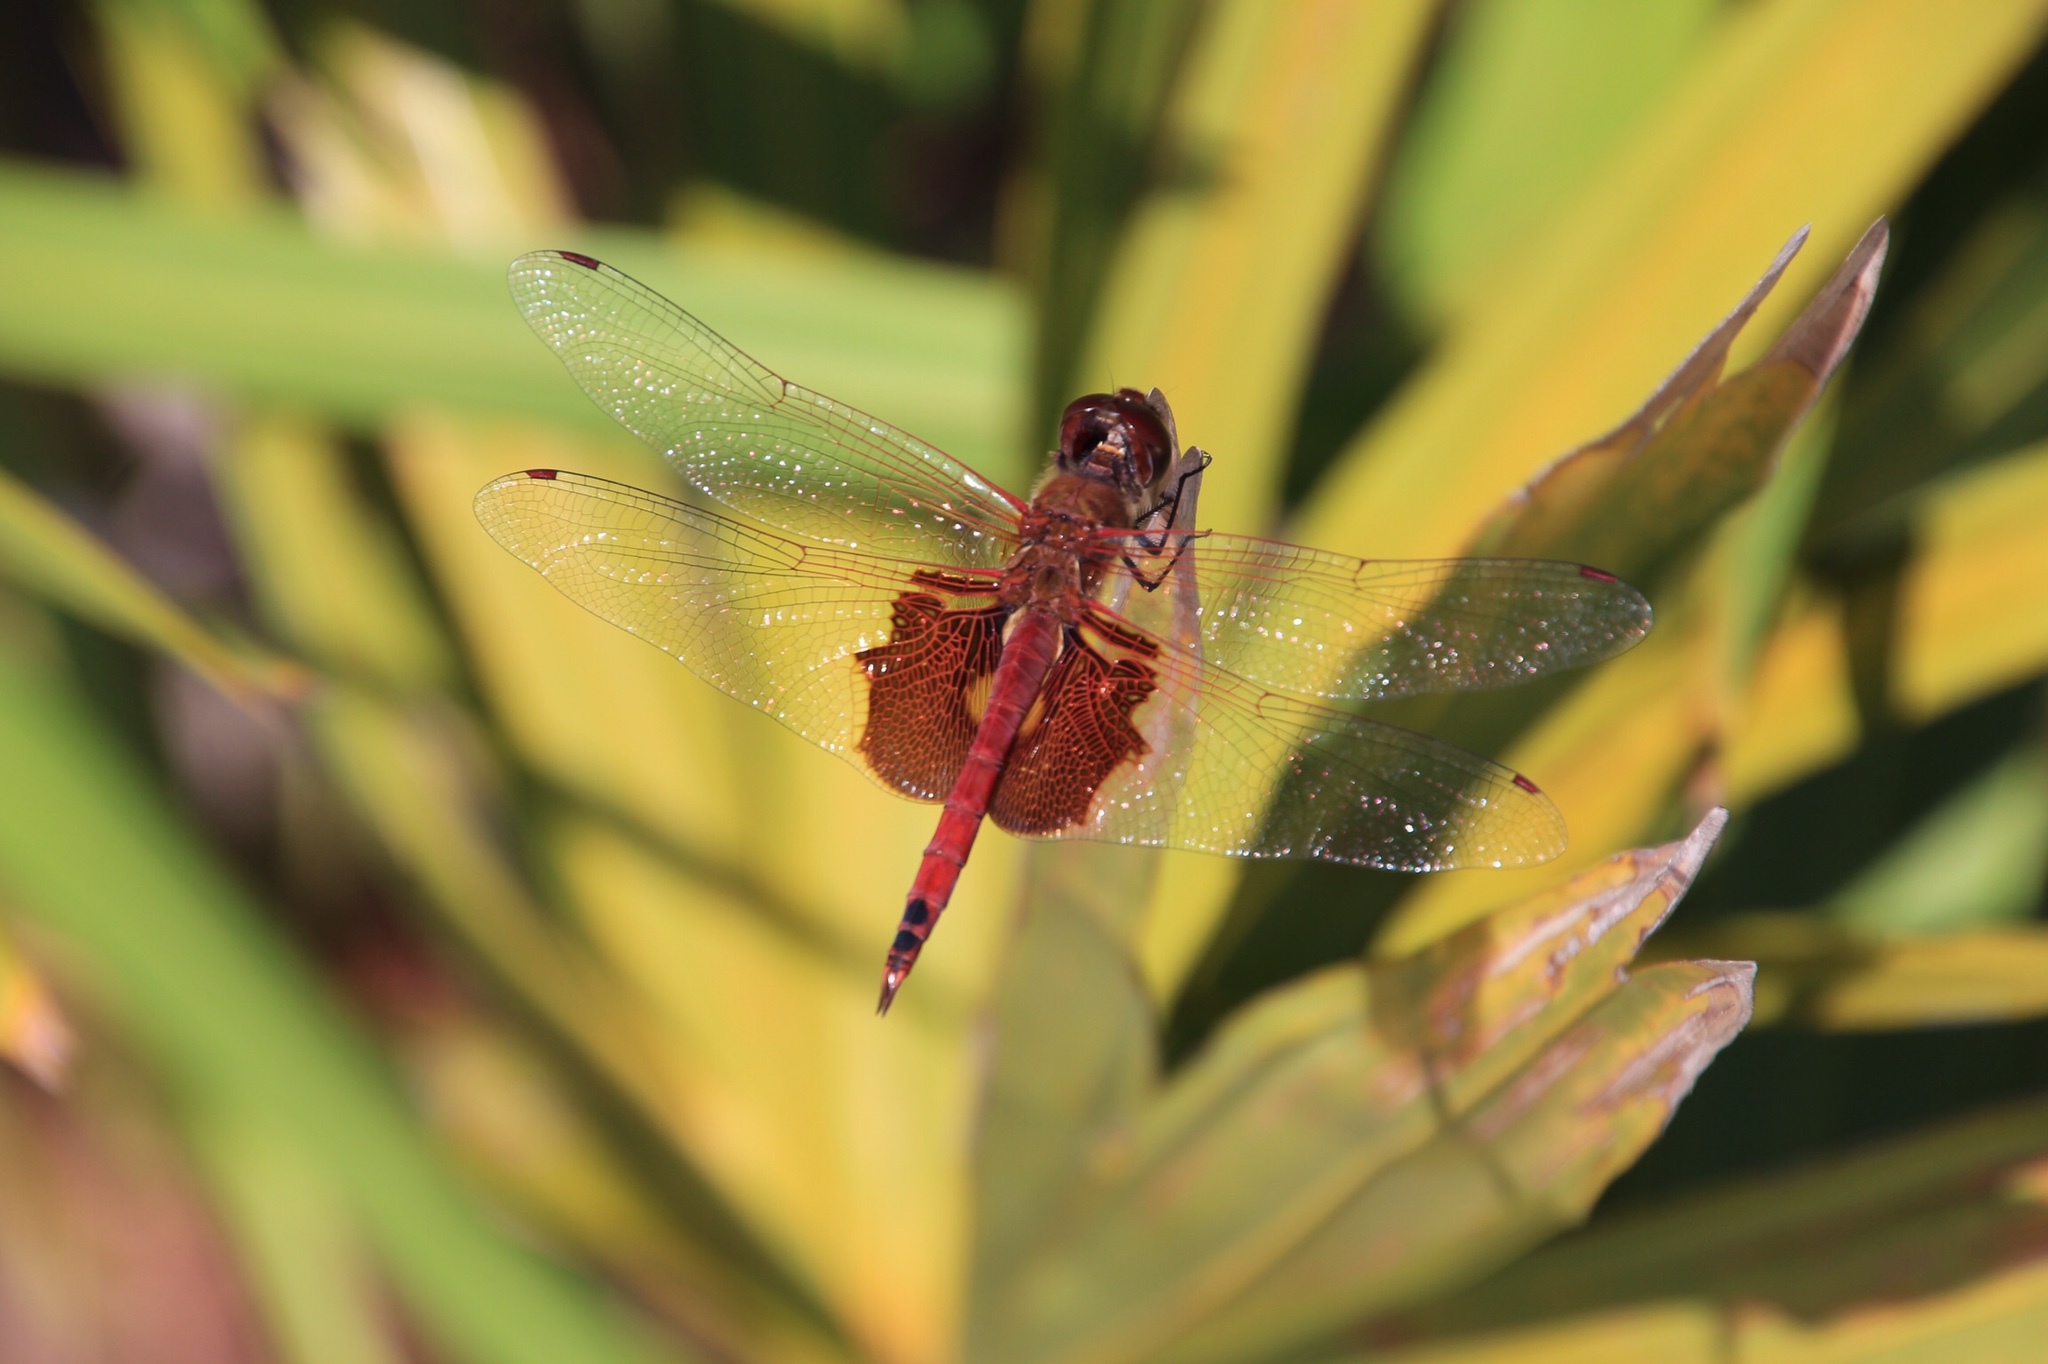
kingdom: Animalia
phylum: Arthropoda
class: Insecta
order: Odonata
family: Libellulidae
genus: Tramea
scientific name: Tramea onusta
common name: Red saddlebags
